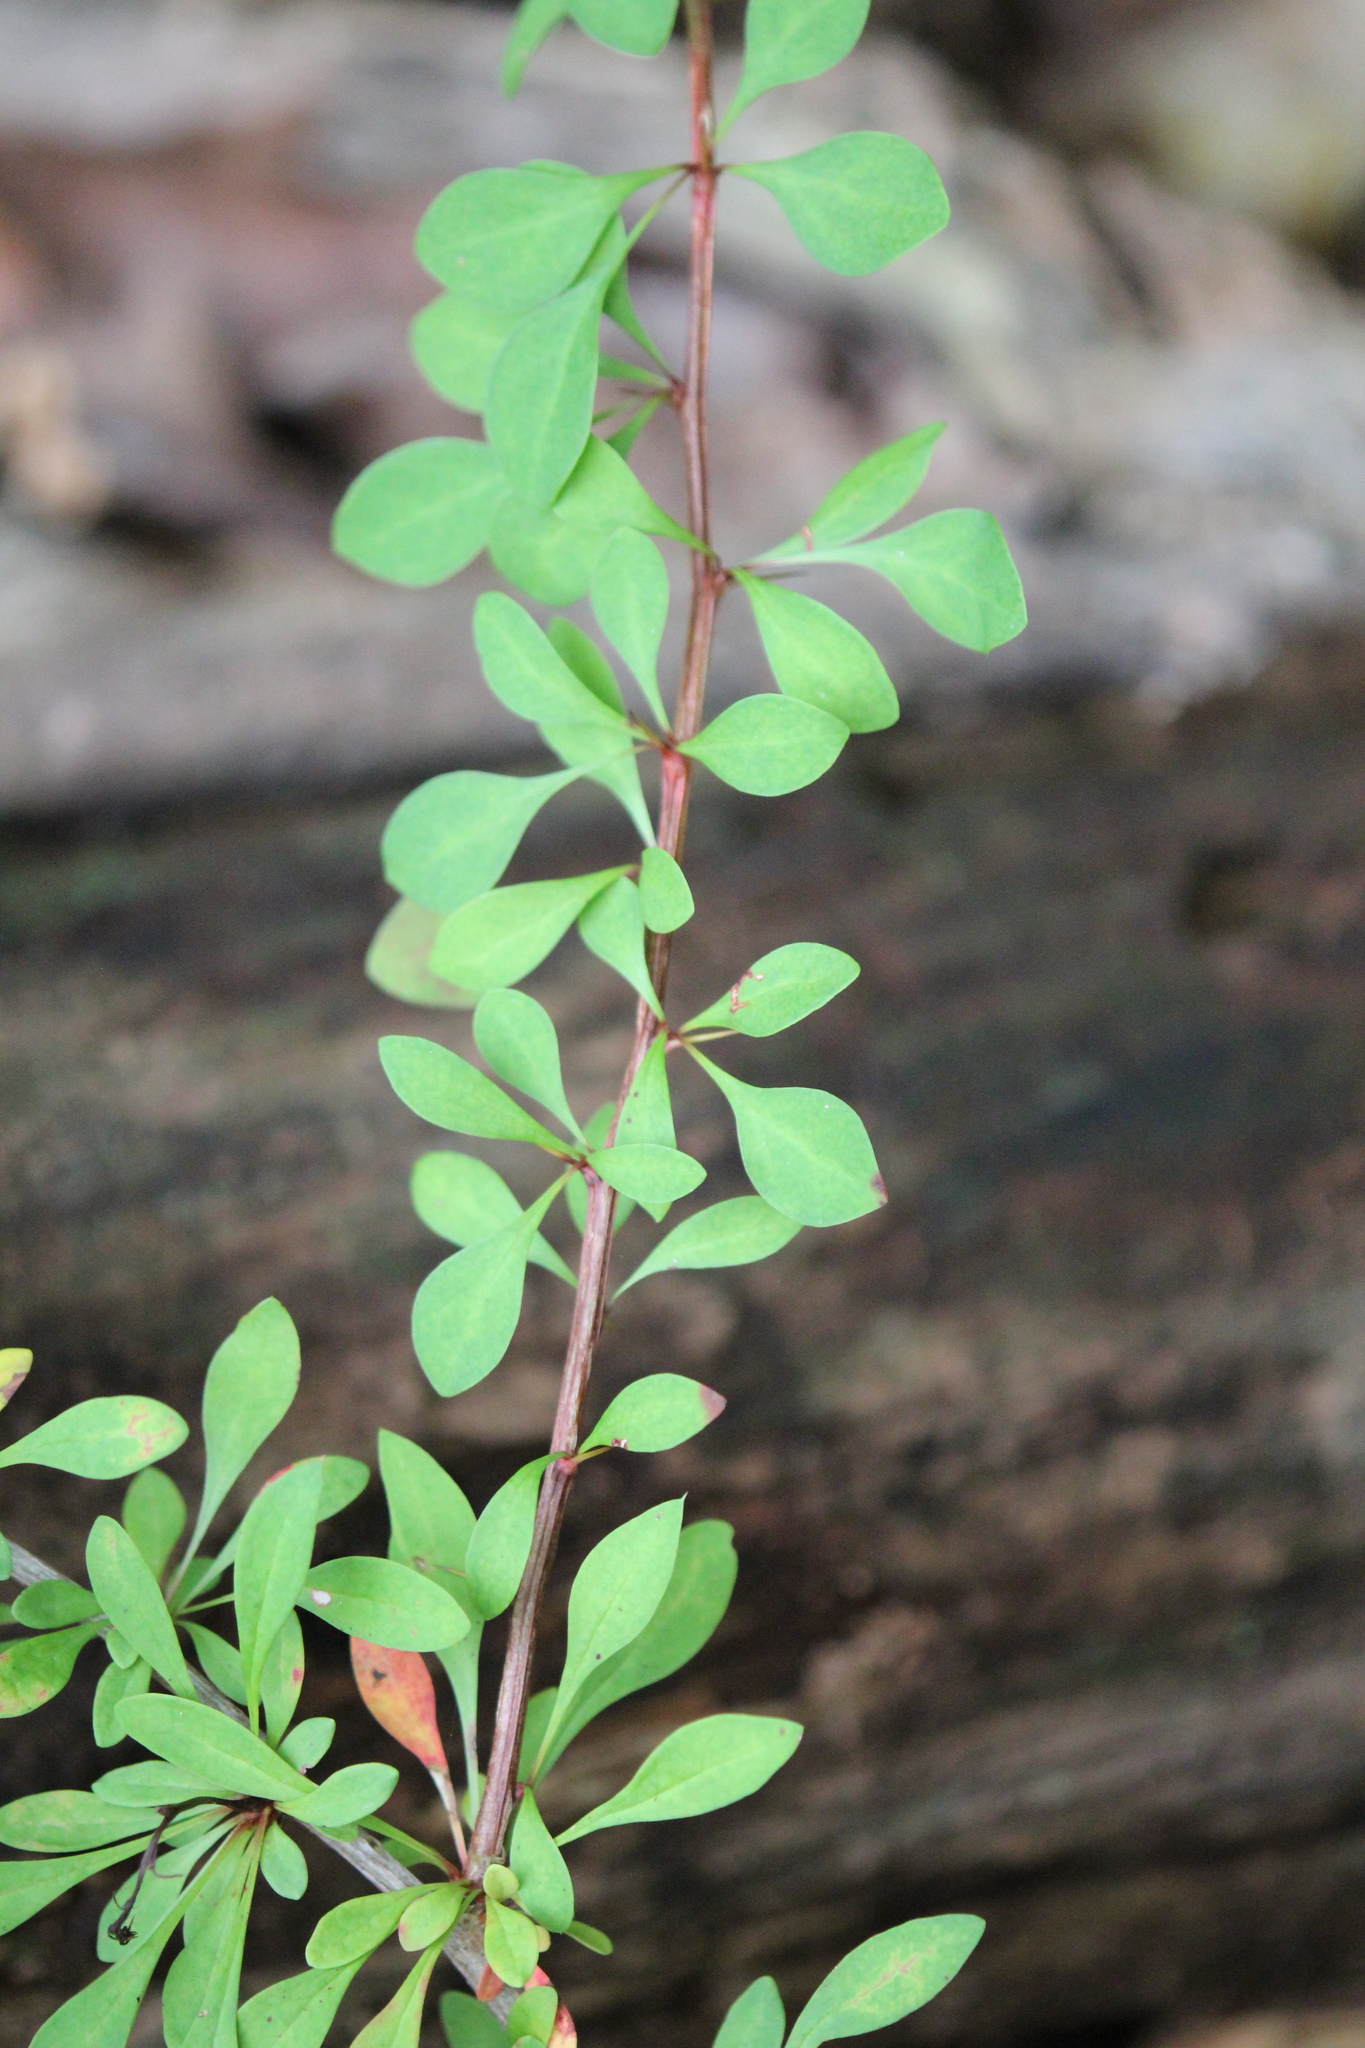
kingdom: Plantae
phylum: Tracheophyta
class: Magnoliopsida
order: Ranunculales
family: Berberidaceae
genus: Berberis
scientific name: Berberis thunbergii
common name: Japanese barberry
